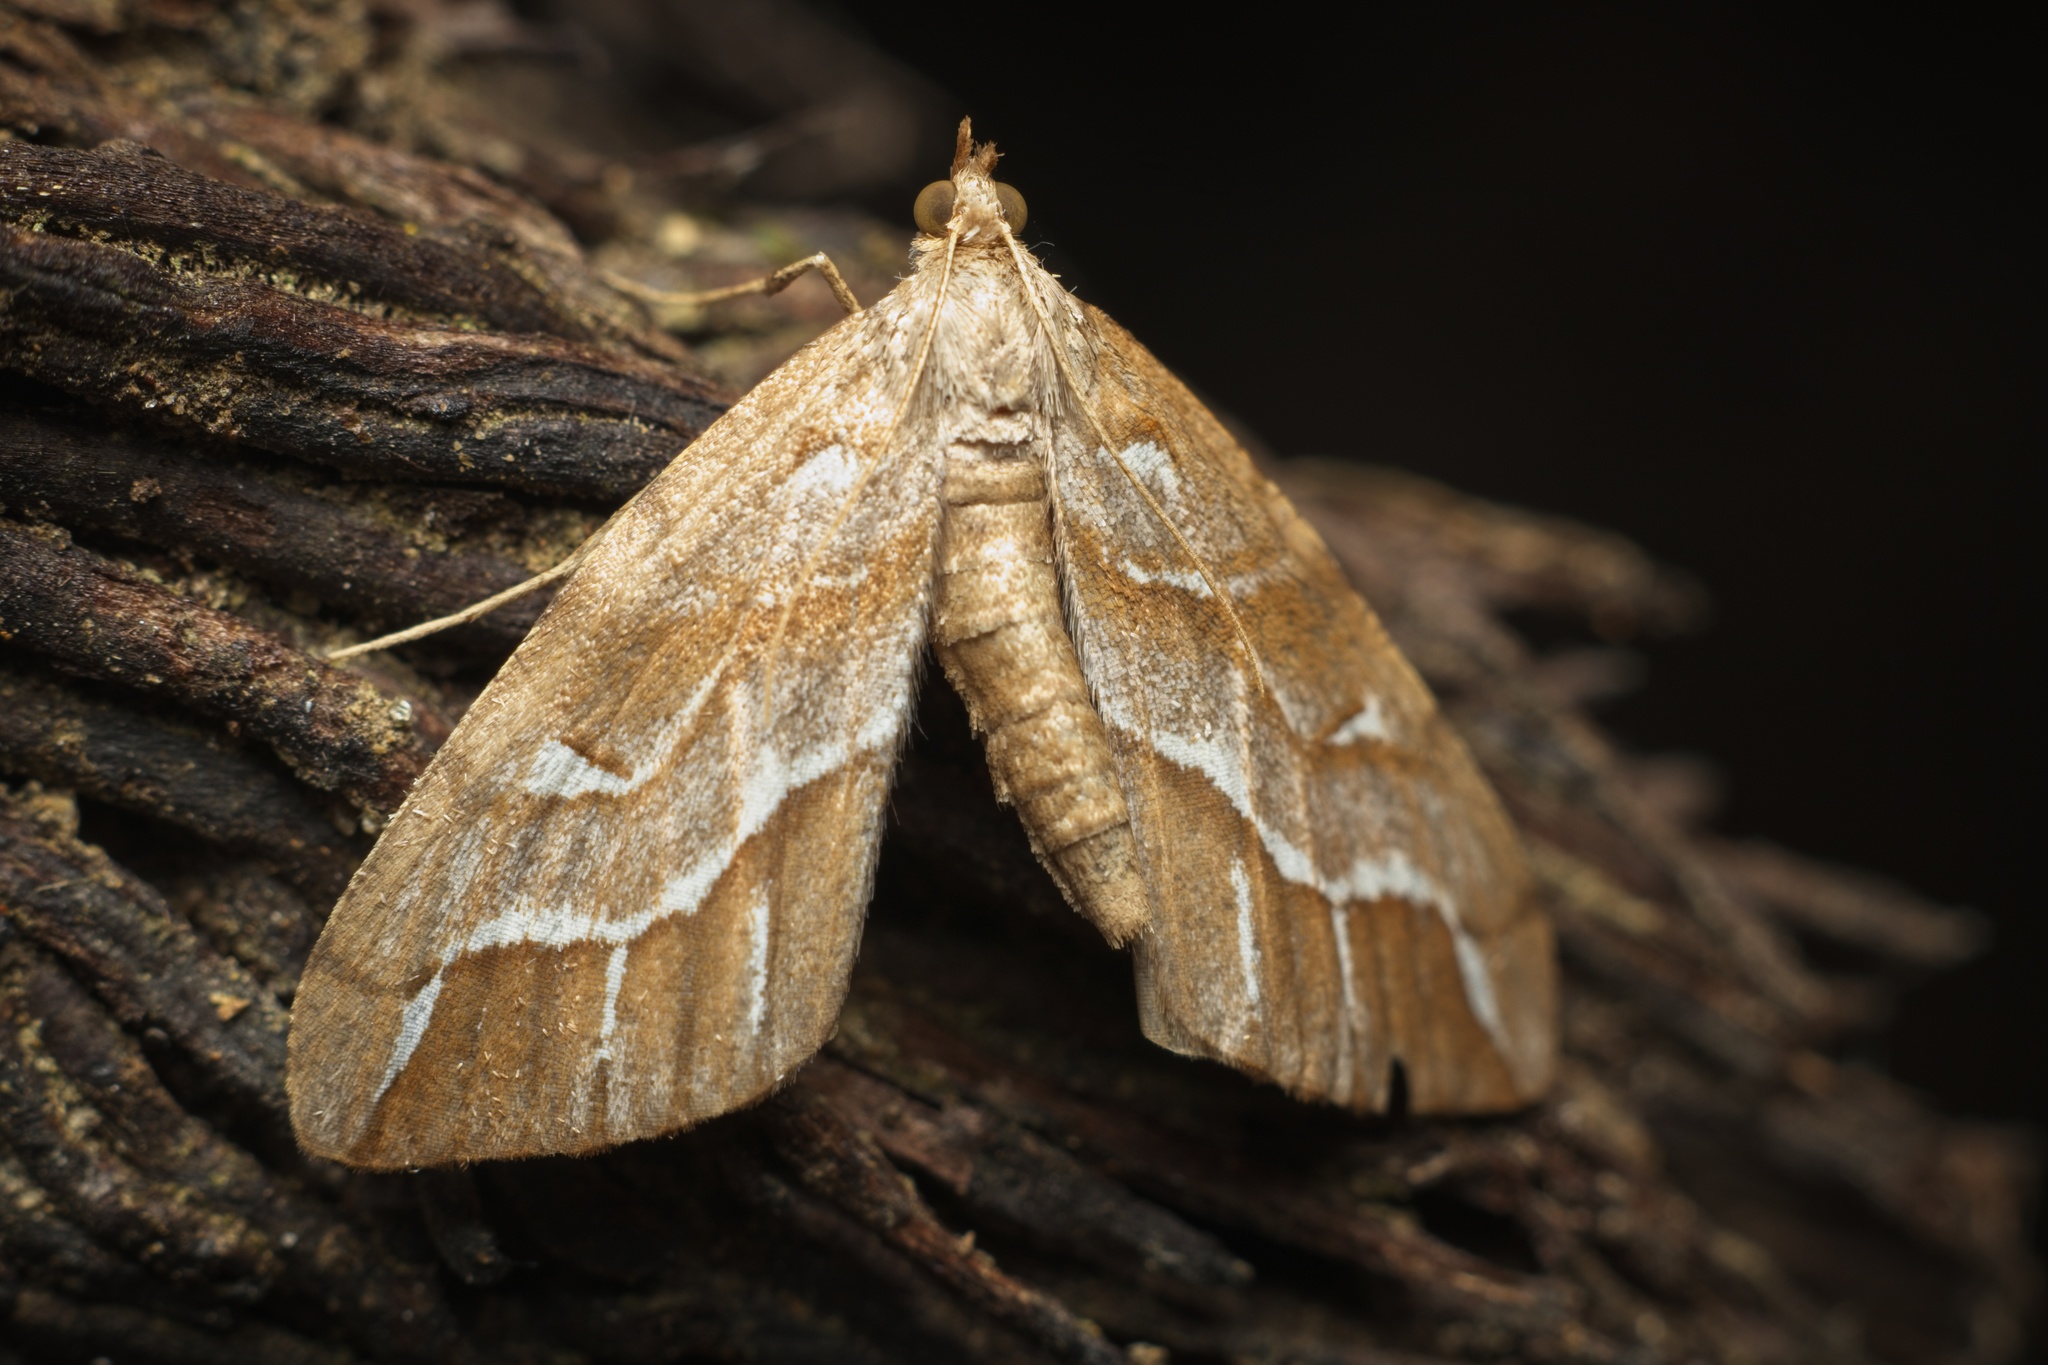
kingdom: Animalia
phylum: Arthropoda
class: Insecta
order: Lepidoptera
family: Geometridae
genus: Chalastra
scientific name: Chalastra aristarcha
